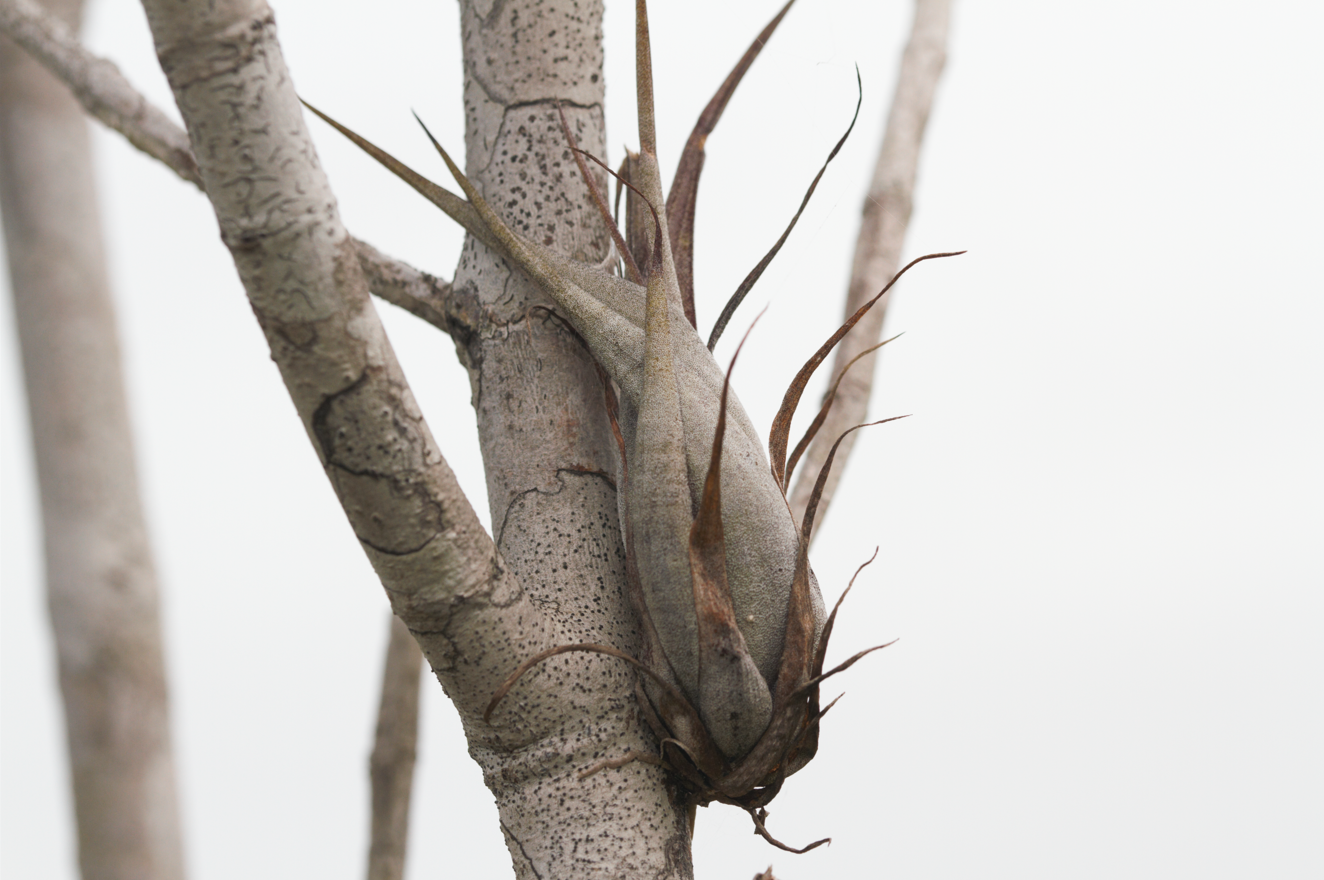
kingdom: Plantae
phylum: Tracheophyta
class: Liliopsida
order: Poales
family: Bromeliaceae
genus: Tillandsia
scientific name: Tillandsia flexuosa
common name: Banded airplant
